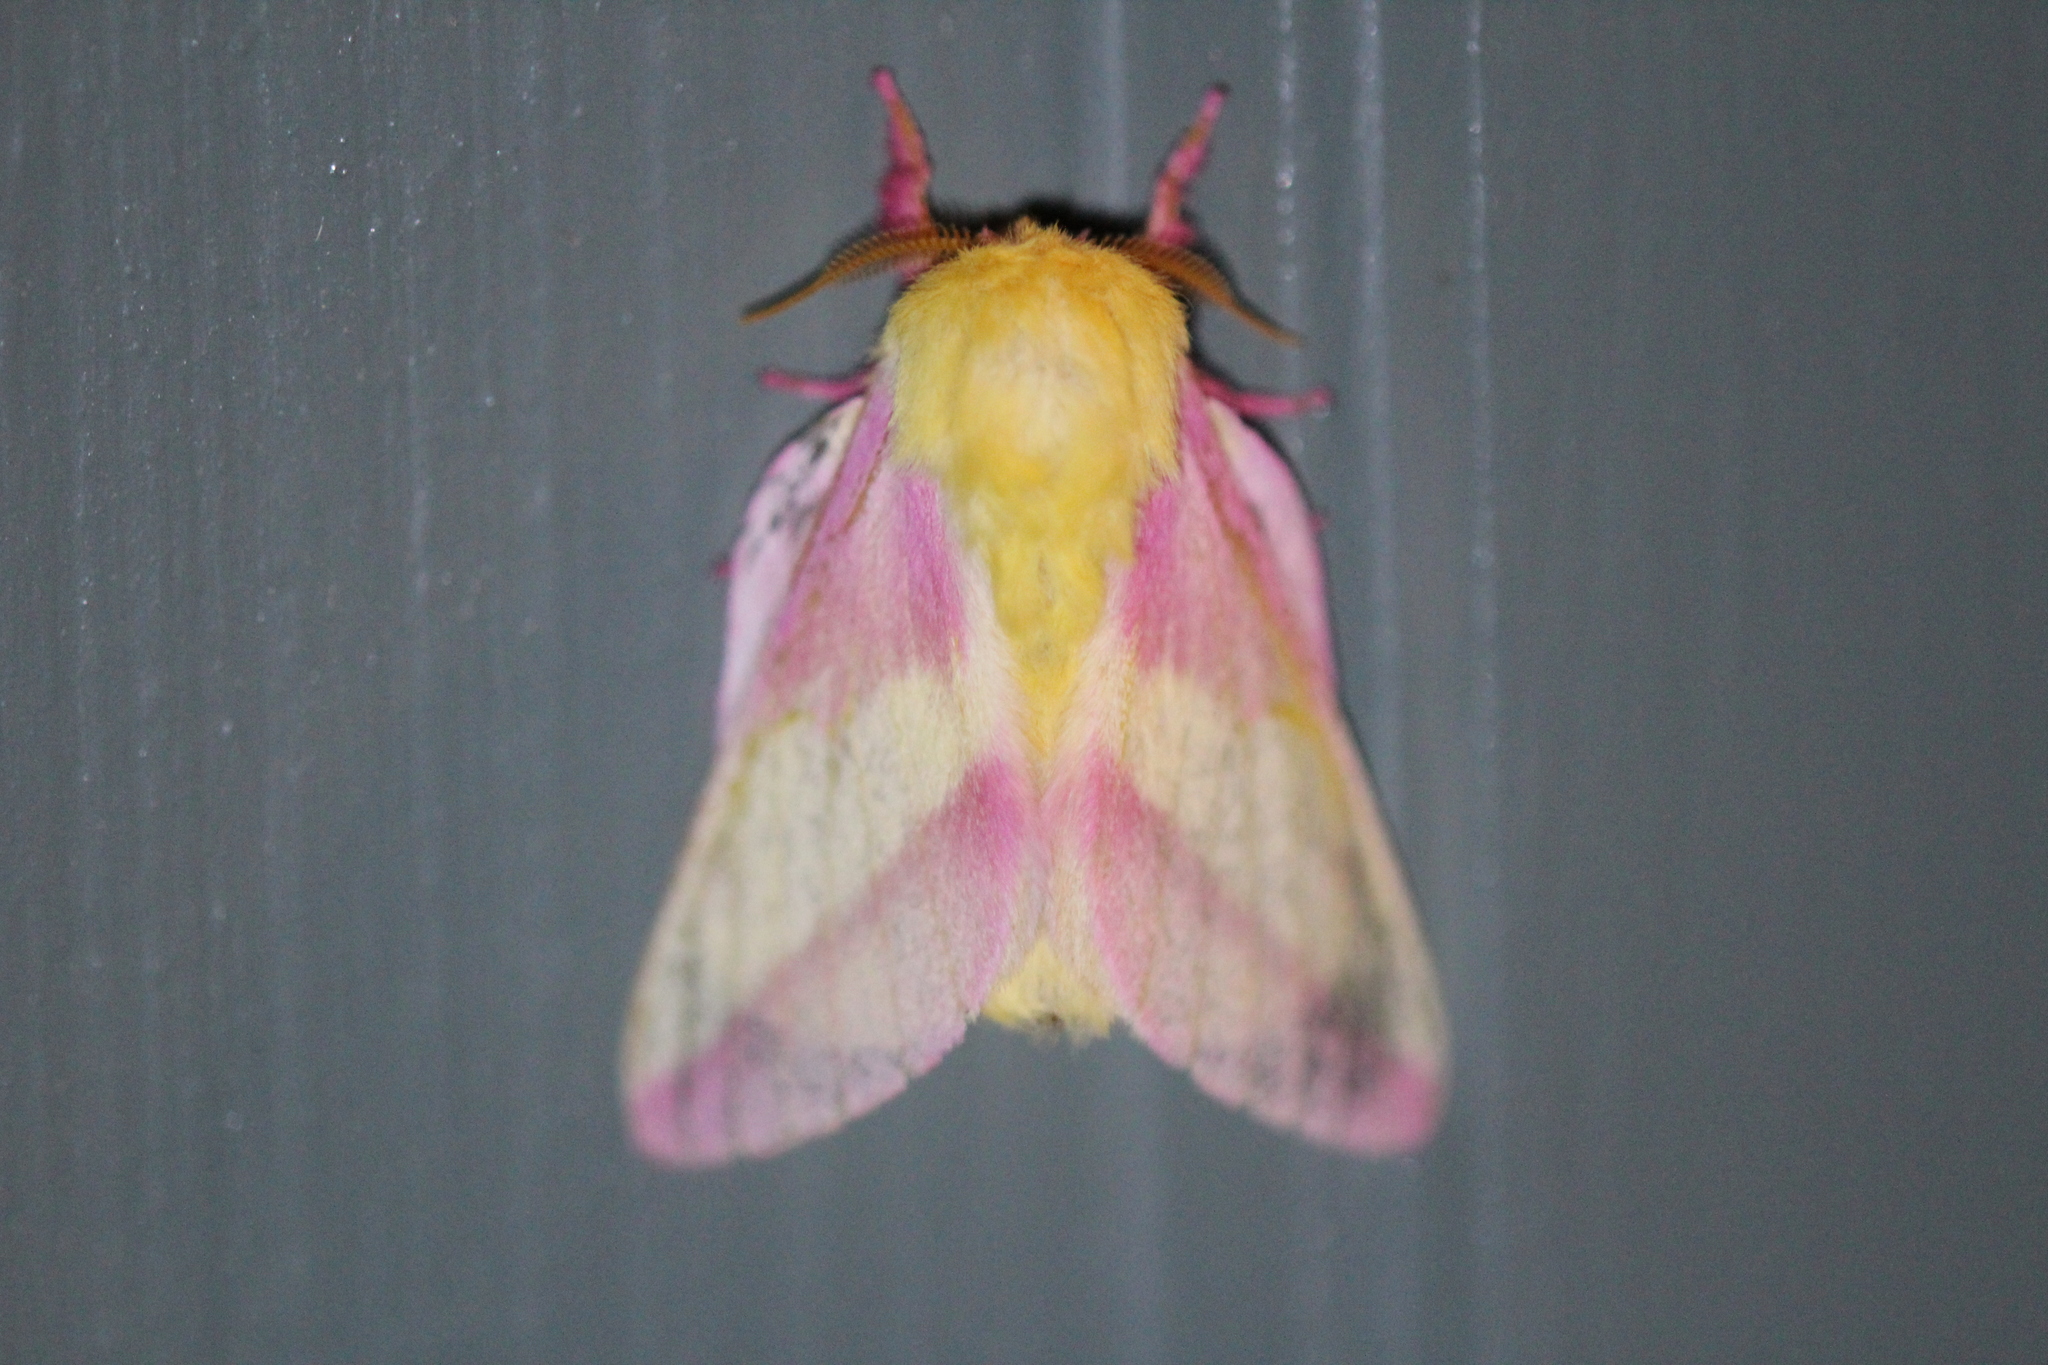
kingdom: Animalia
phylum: Arthropoda
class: Insecta
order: Lepidoptera
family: Saturniidae
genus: Dryocampa
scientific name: Dryocampa rubicunda
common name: Rosy maple moth
